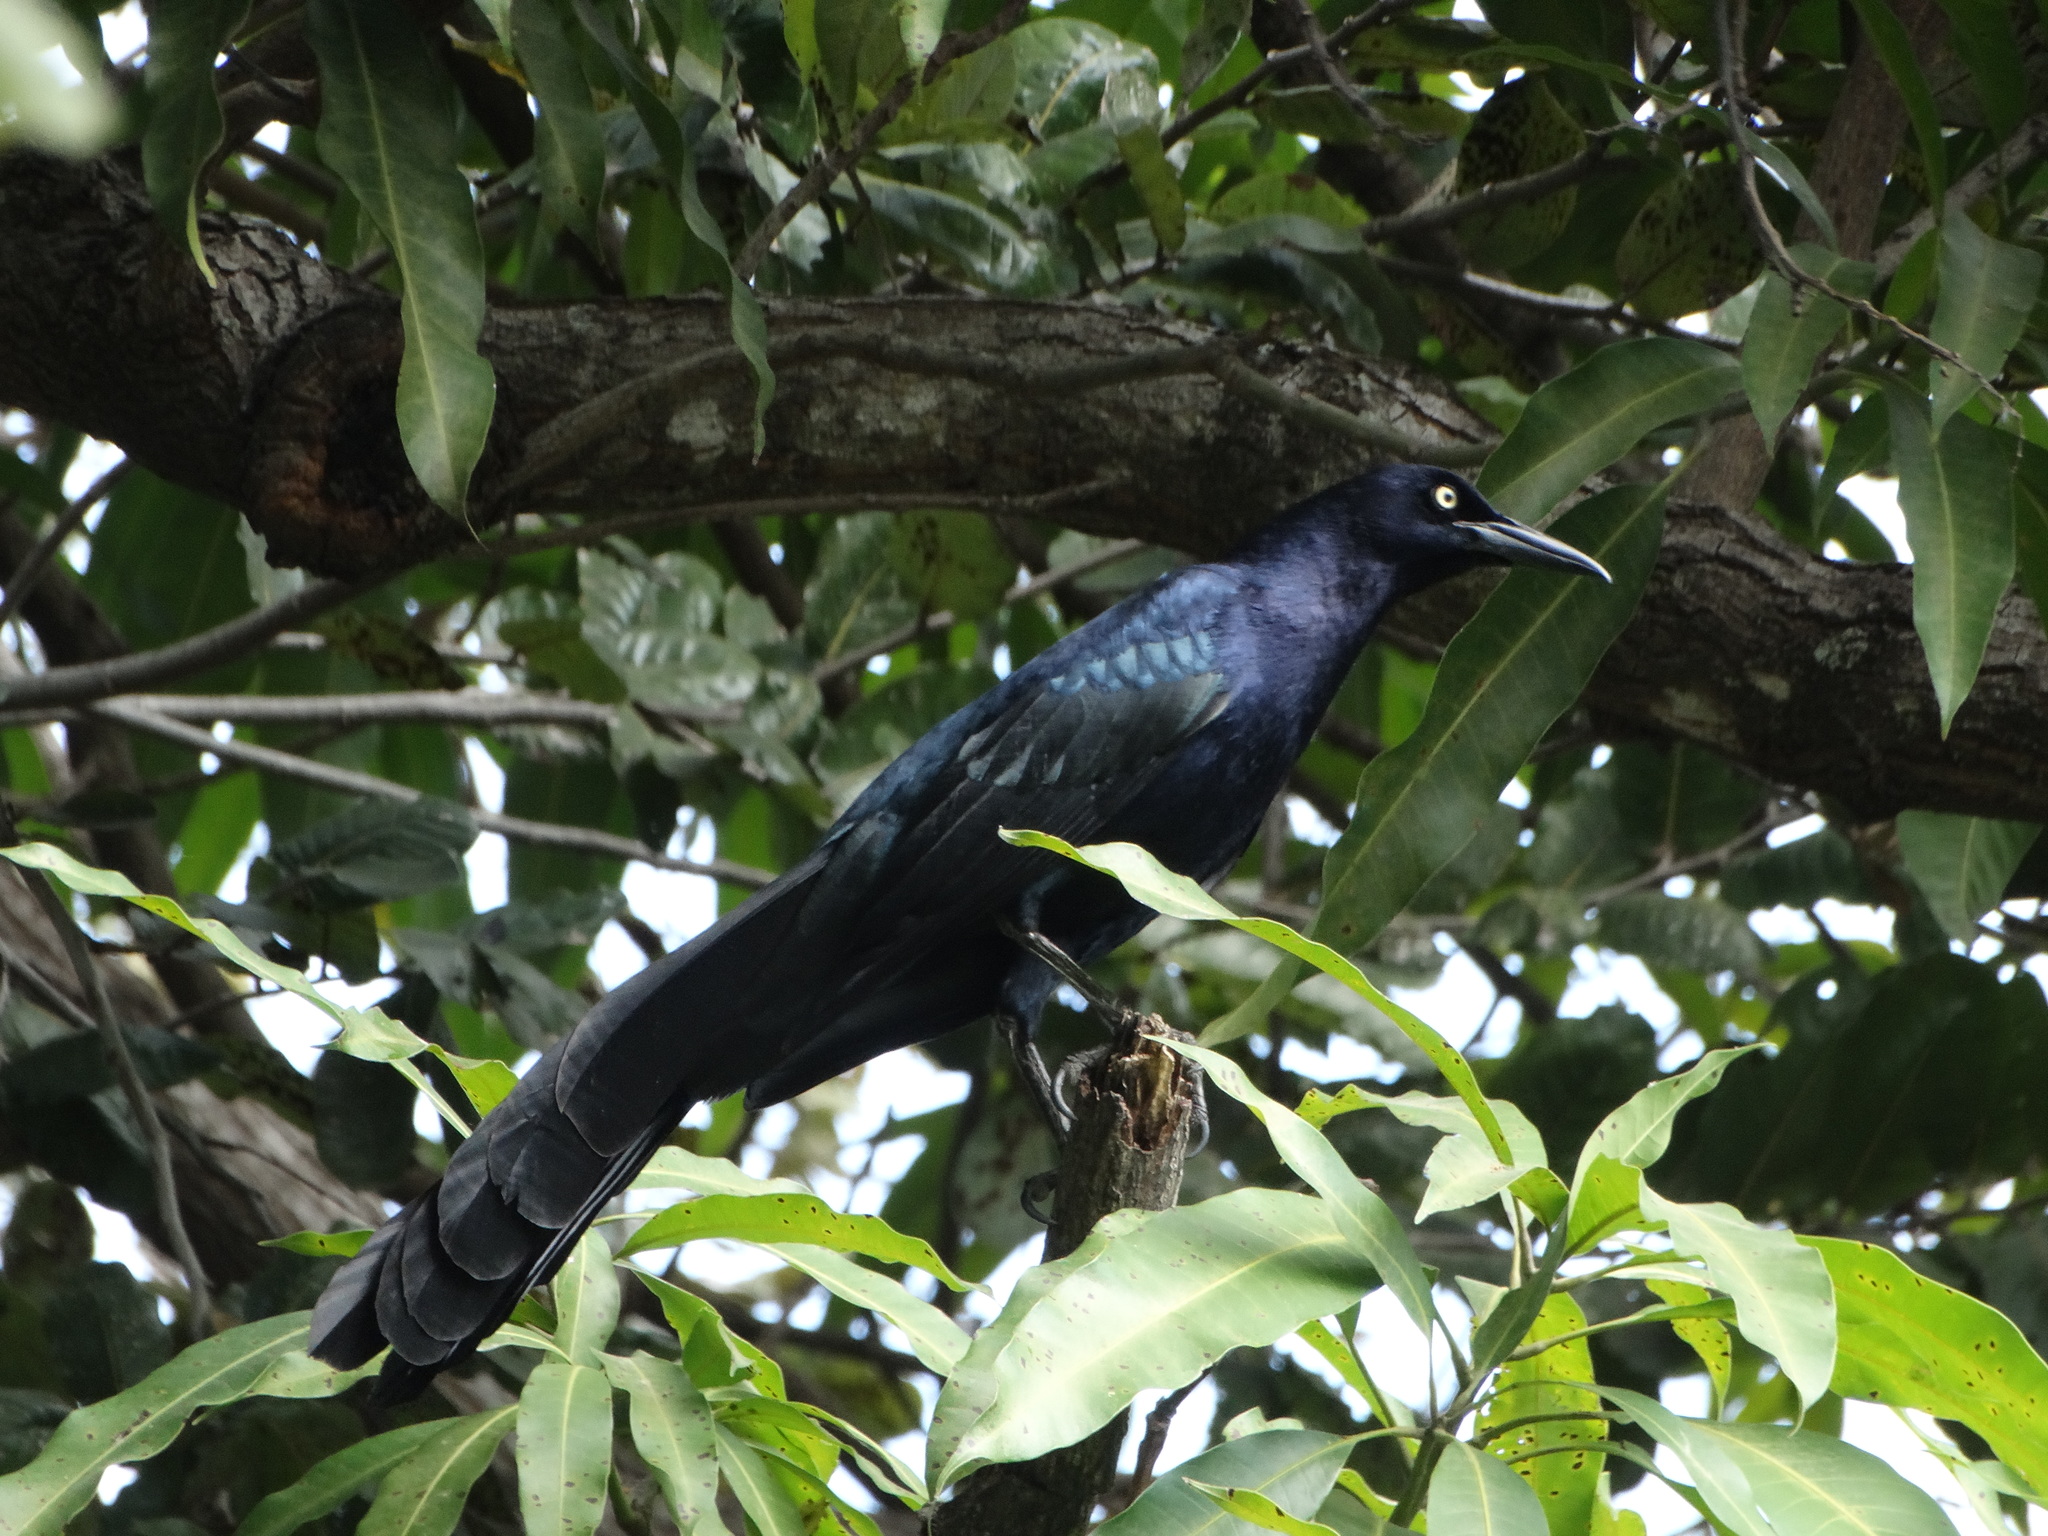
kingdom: Animalia
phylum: Chordata
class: Aves
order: Passeriformes
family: Icteridae
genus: Quiscalus
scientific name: Quiscalus mexicanus
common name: Great-tailed grackle
